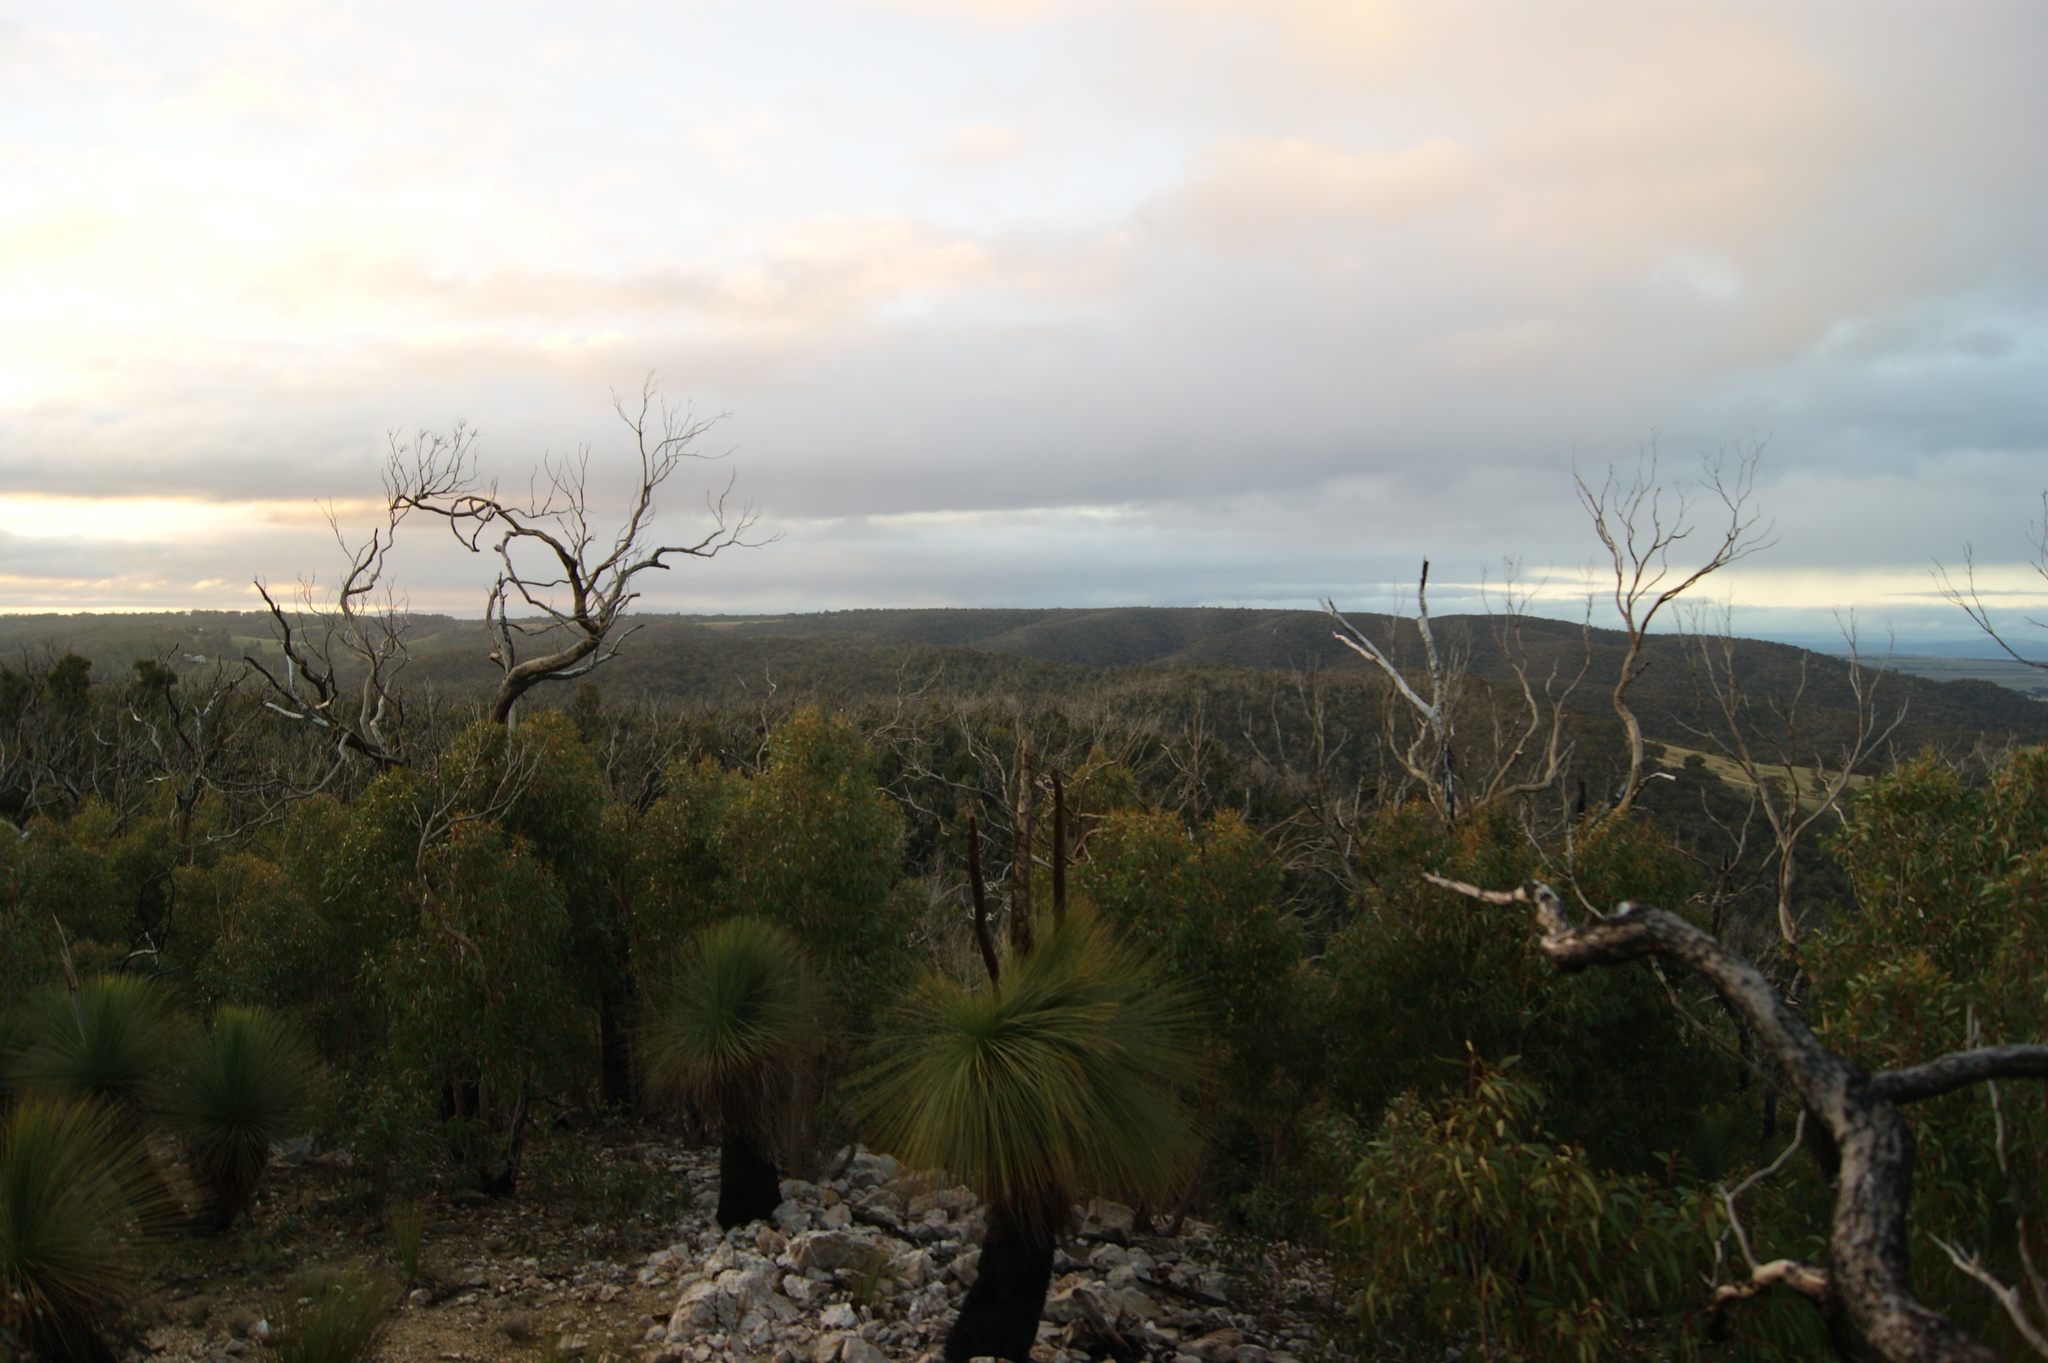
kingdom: Plantae
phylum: Tracheophyta
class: Liliopsida
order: Asparagales
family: Asphodelaceae
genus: Xanthorrhoea
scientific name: Xanthorrhoea australis
